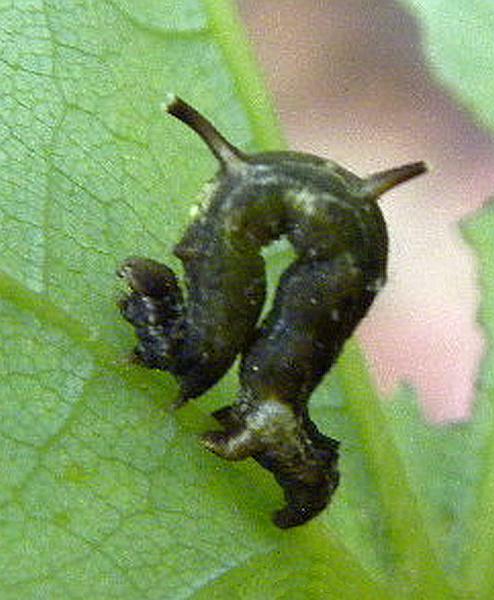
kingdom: Animalia
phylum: Arthropoda
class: Insecta
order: Lepidoptera
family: Geometridae
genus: Nematocampa
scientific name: Nematocampa resistaria
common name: Horned spanworm moth
